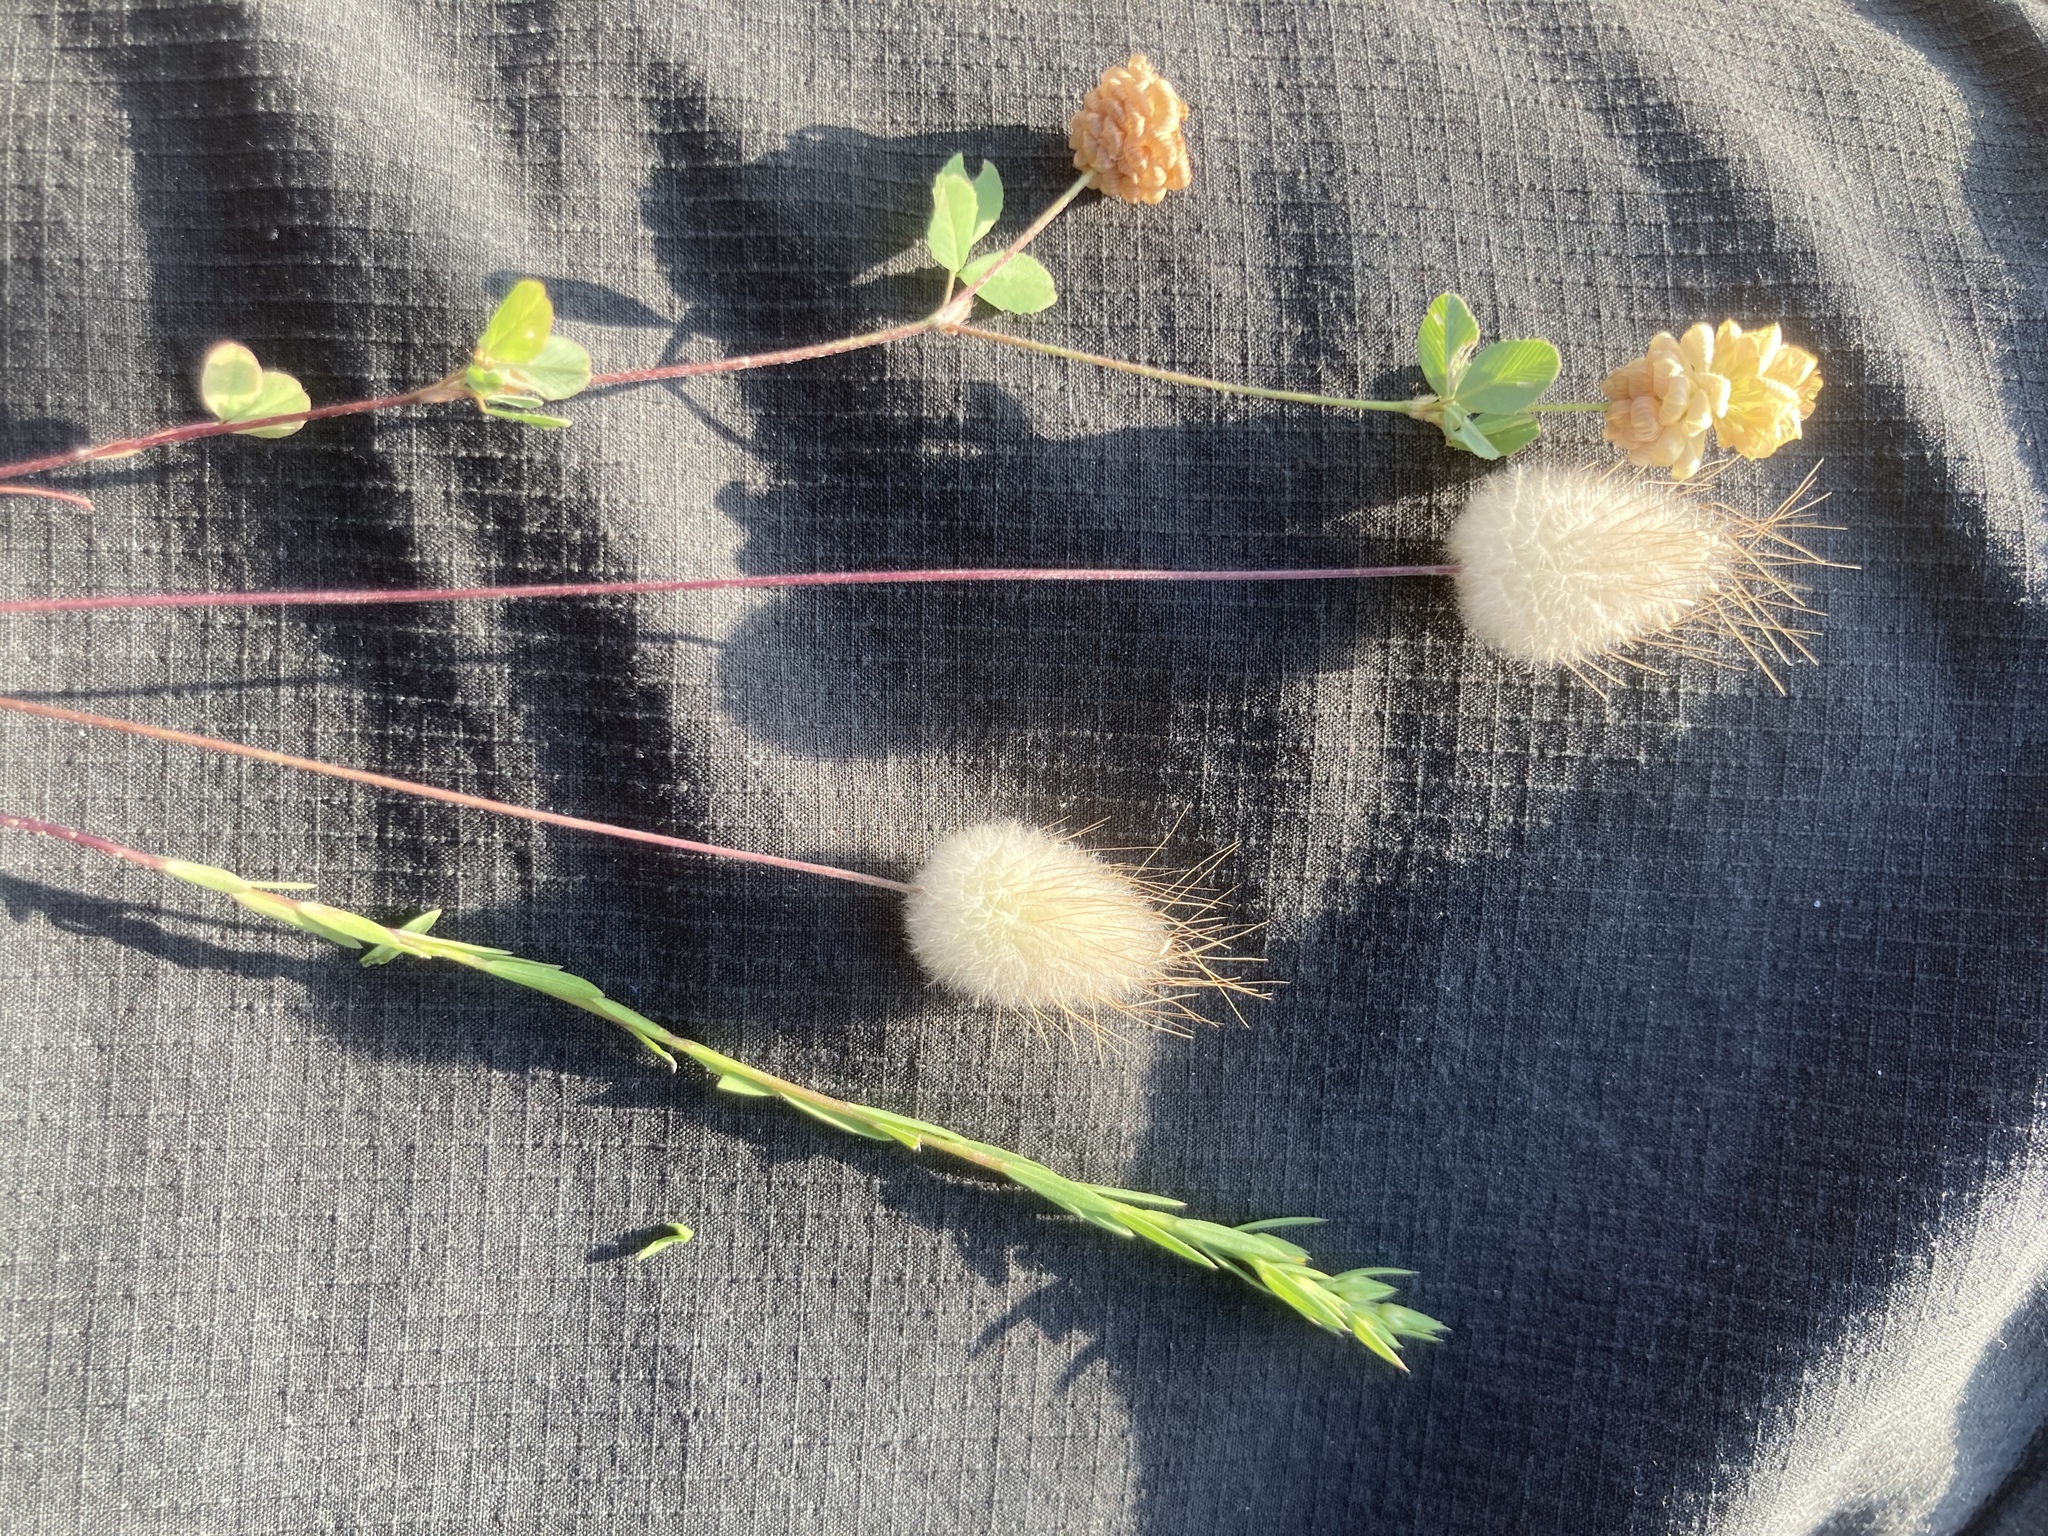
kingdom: Plantae
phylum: Tracheophyta
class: Liliopsida
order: Poales
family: Poaceae
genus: Lagurus
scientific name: Lagurus ovatus
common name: Hare's-tail
